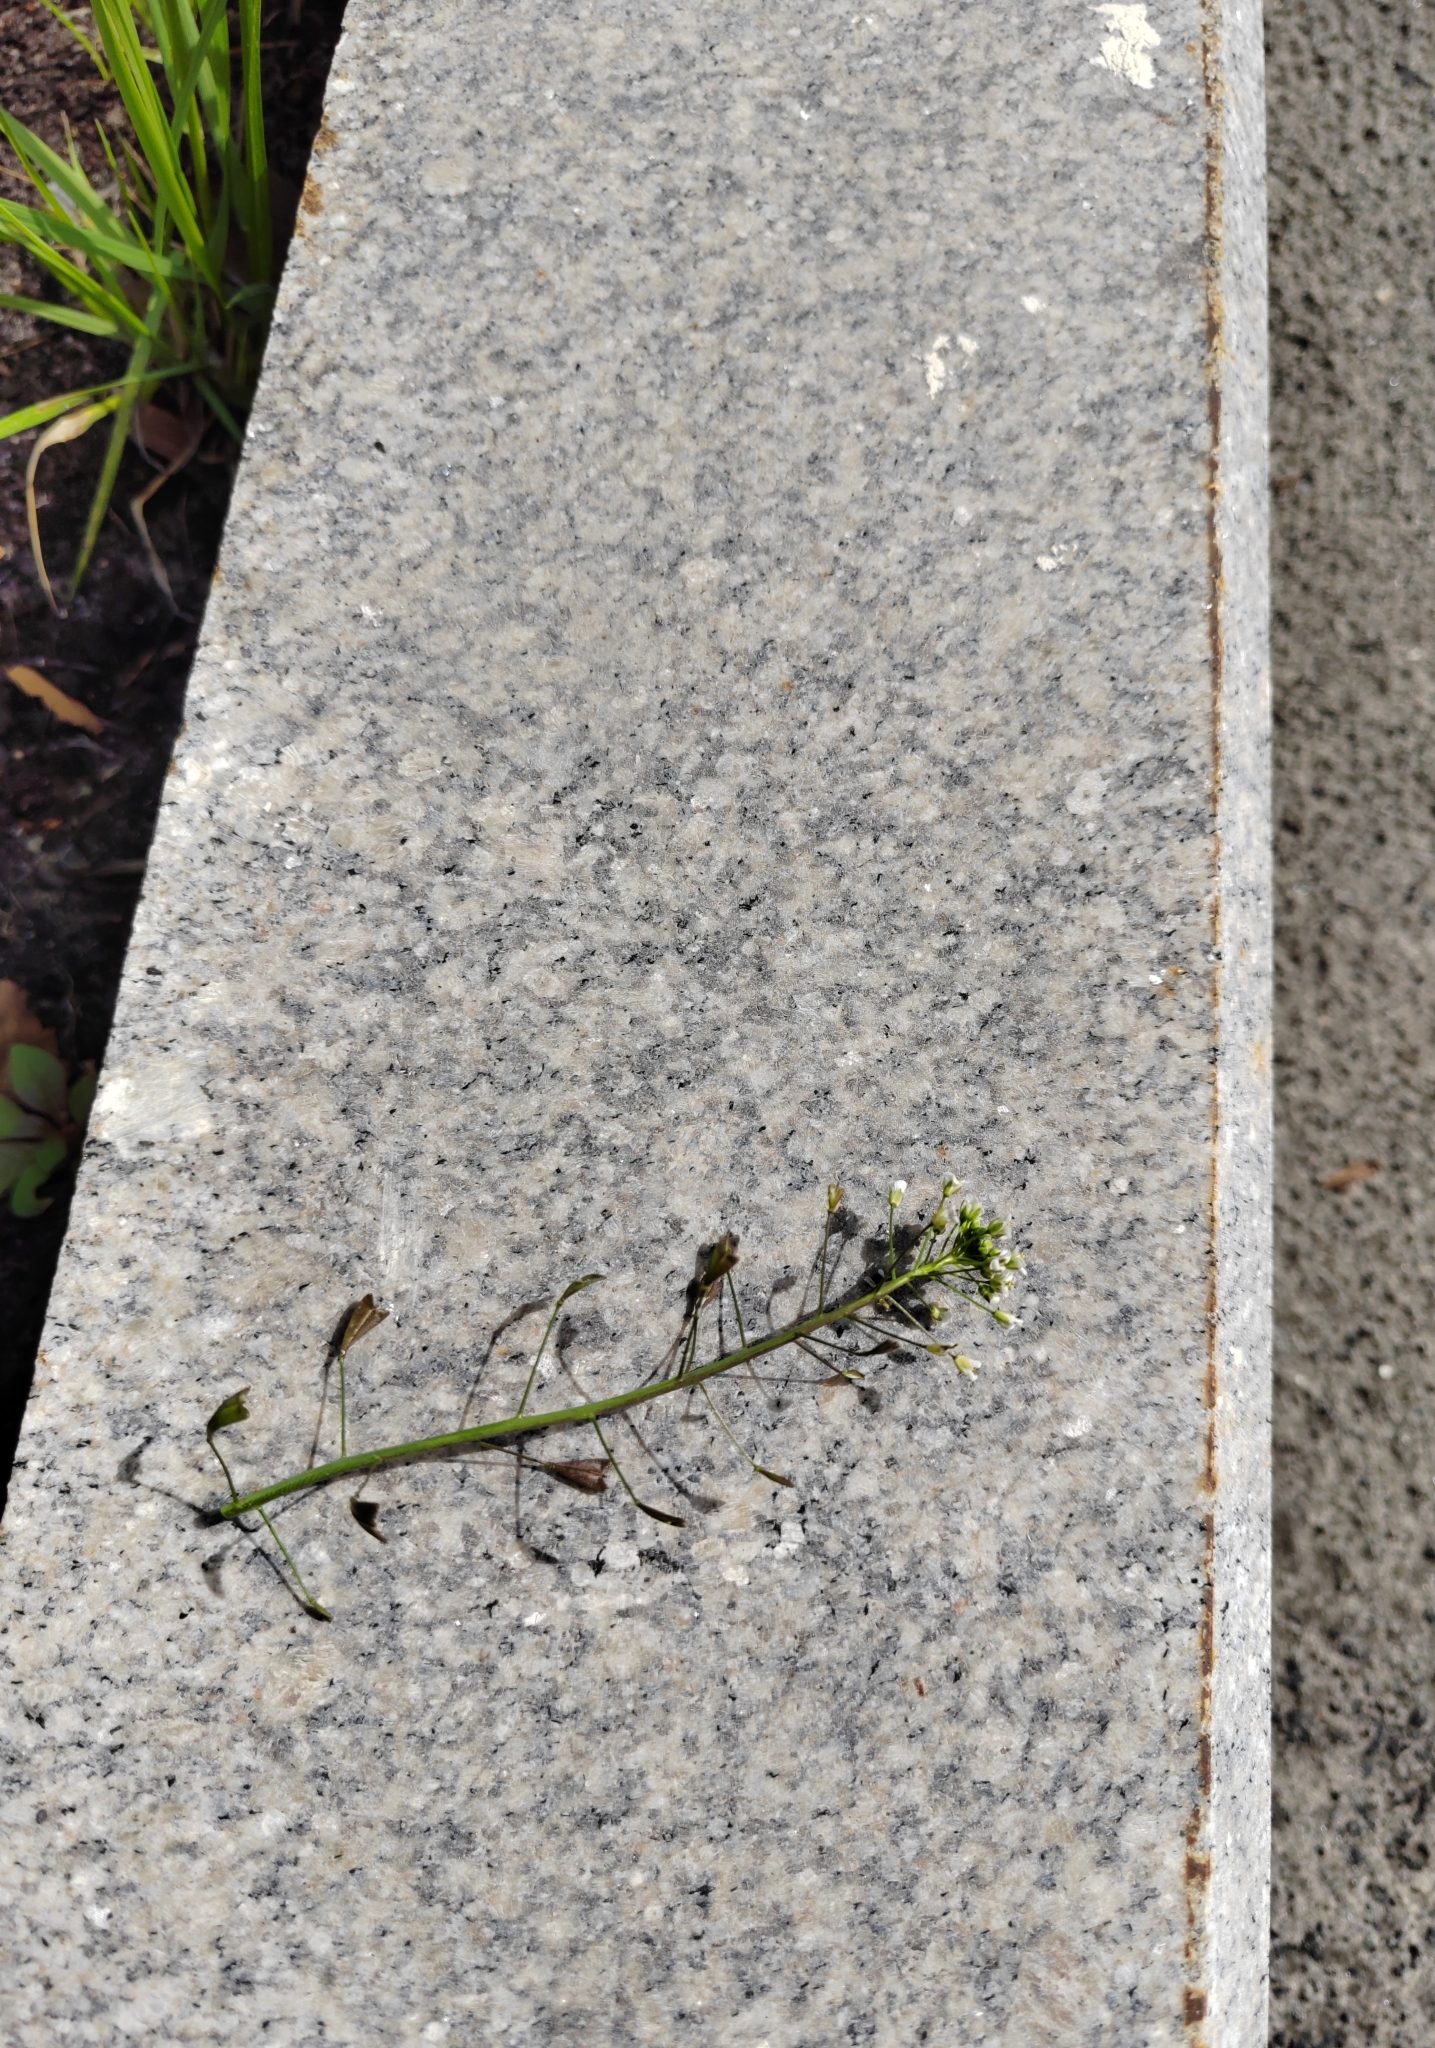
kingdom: Plantae
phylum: Tracheophyta
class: Magnoliopsida
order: Brassicales
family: Brassicaceae
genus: Capsella
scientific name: Capsella bursa-pastoris
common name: Shepherd's purse
